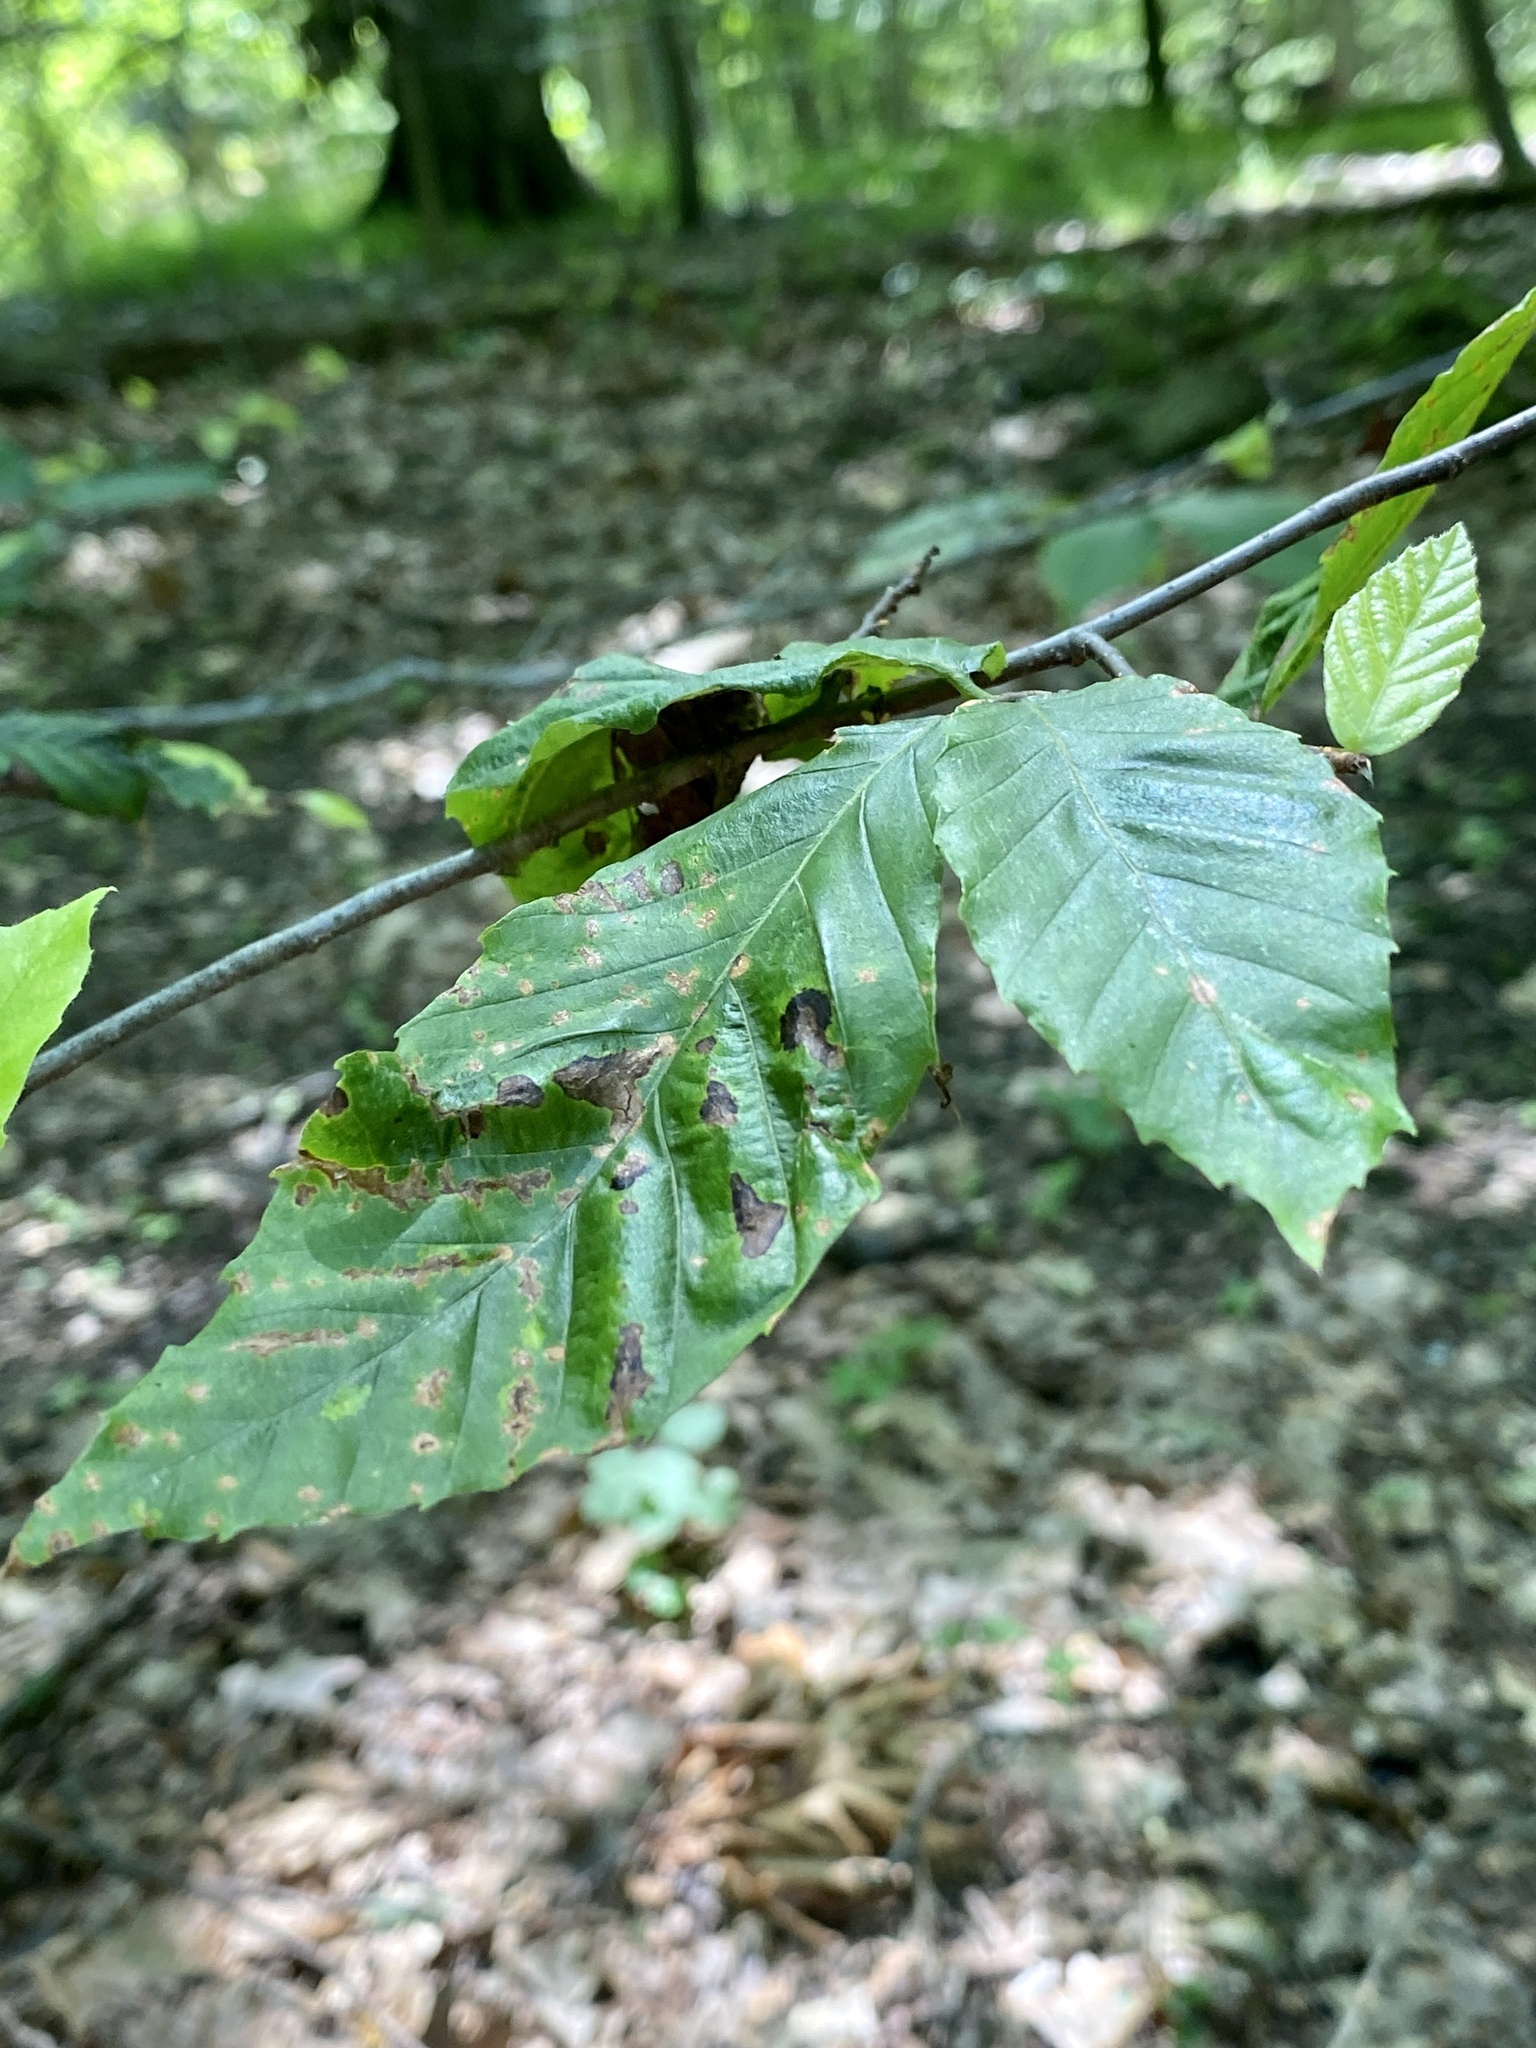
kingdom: Animalia
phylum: Nematoda
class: Chromadorea
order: Rhabditida
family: Anguinidae
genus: Litylenchus
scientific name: Litylenchus crenatae
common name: Beech leaf disease
